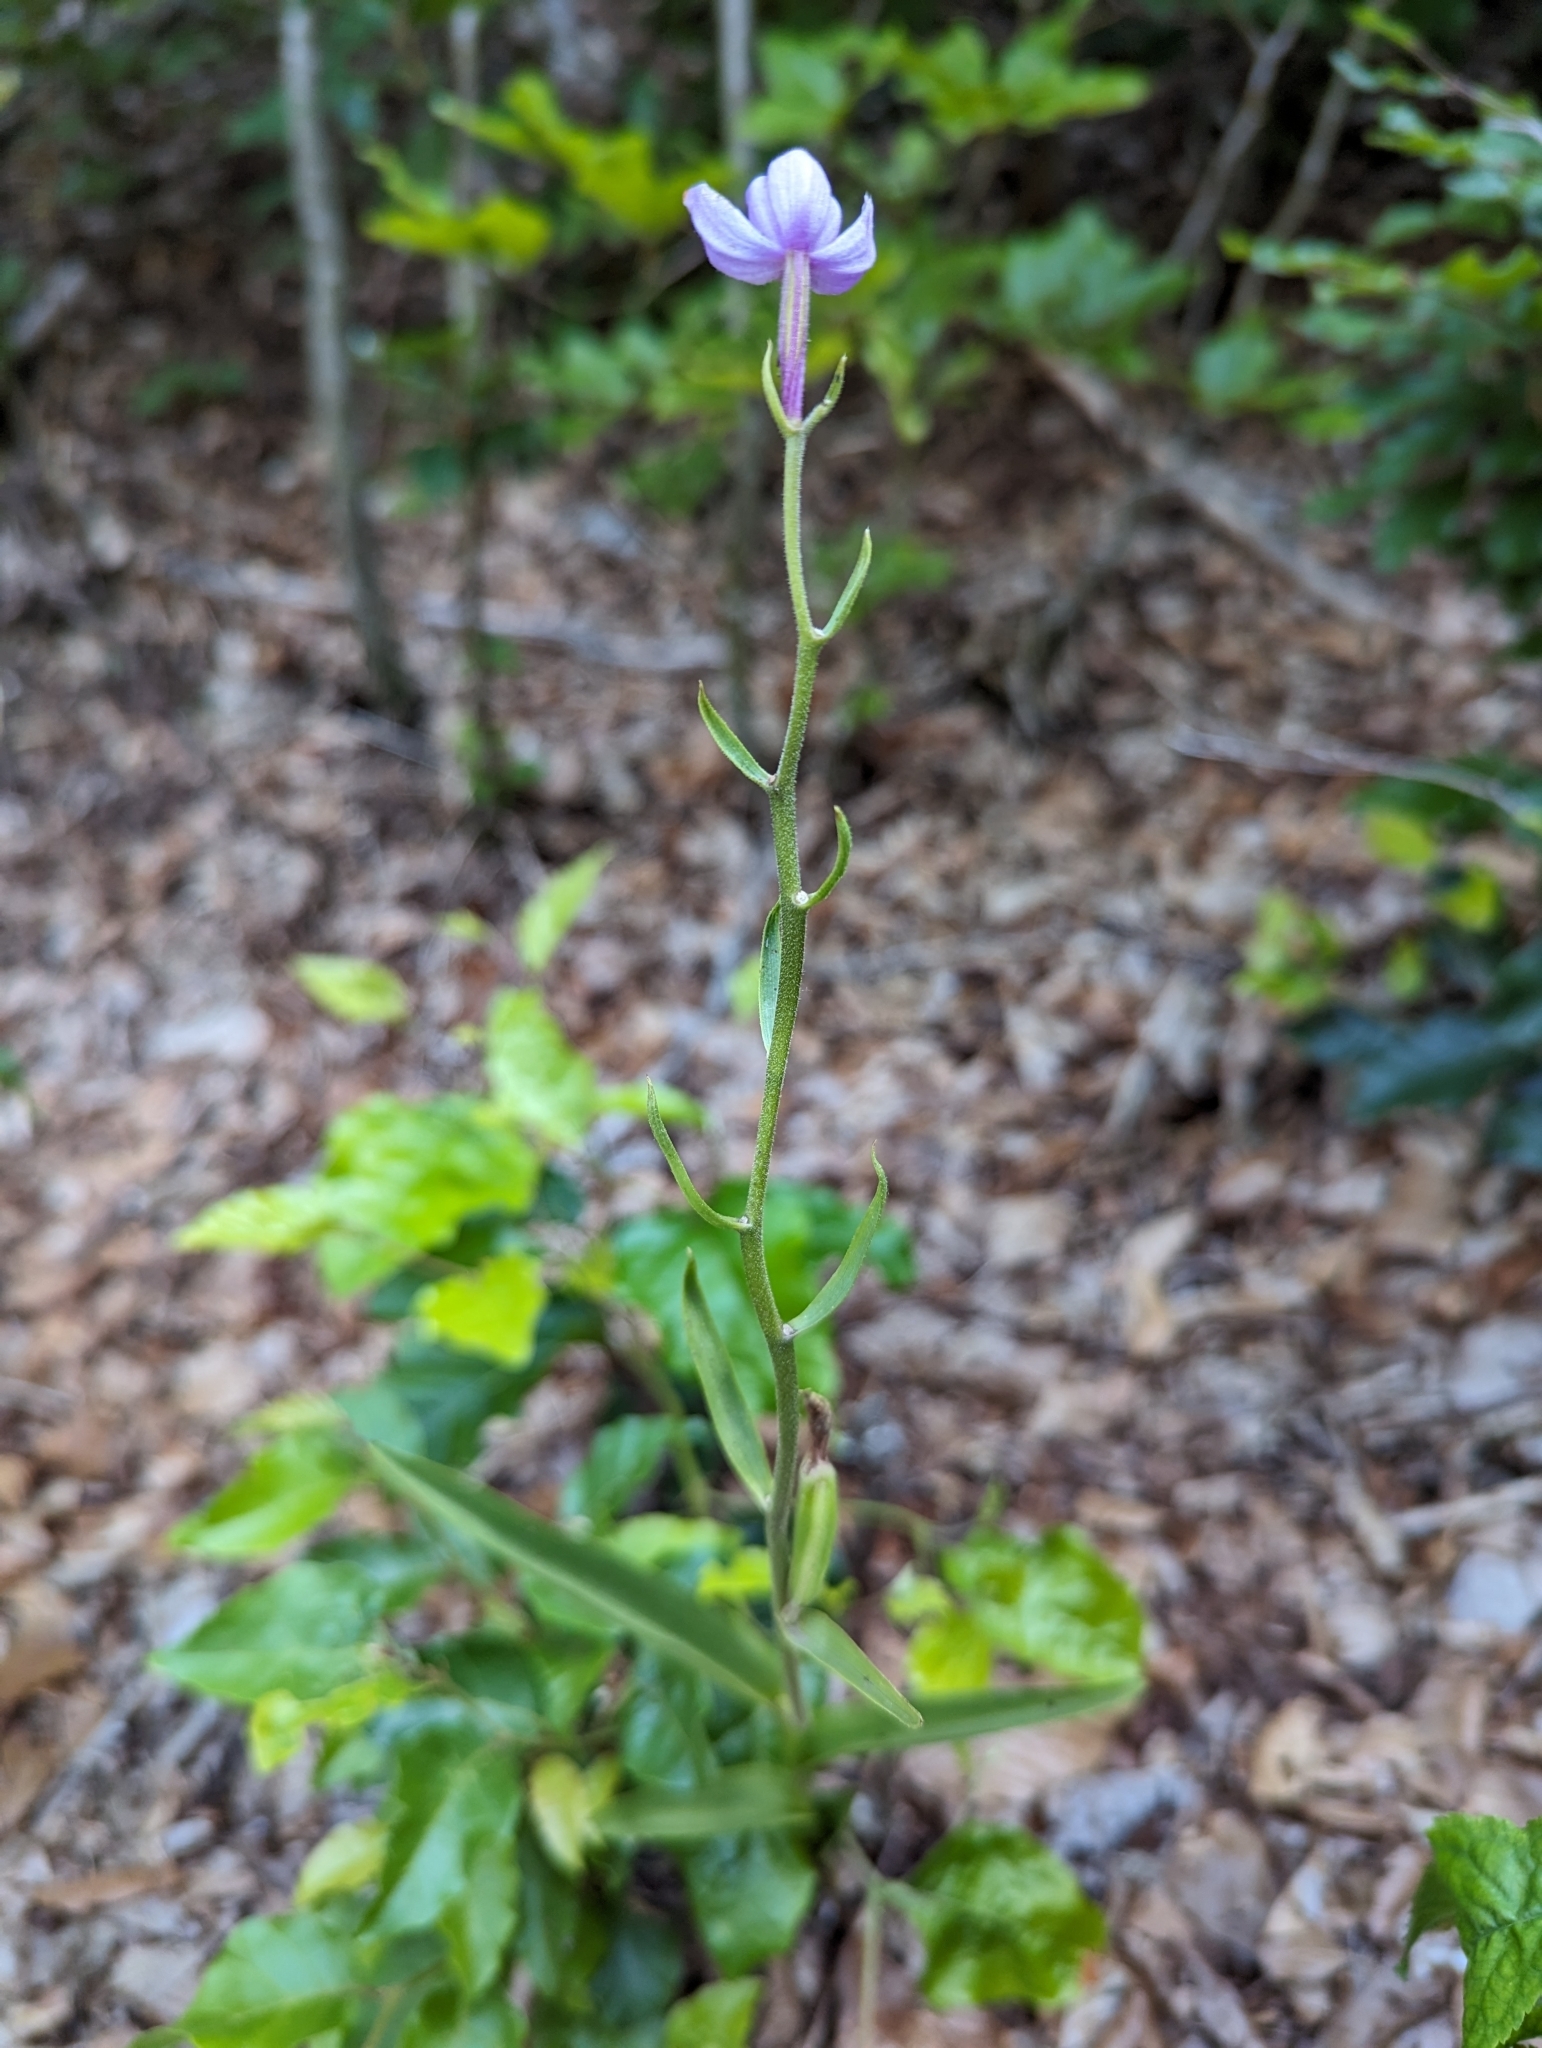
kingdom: Plantae
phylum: Tracheophyta
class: Liliopsida
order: Asparagales
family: Orchidaceae
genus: Cephalanthera
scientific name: Cephalanthera rubra
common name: Red helleborine
